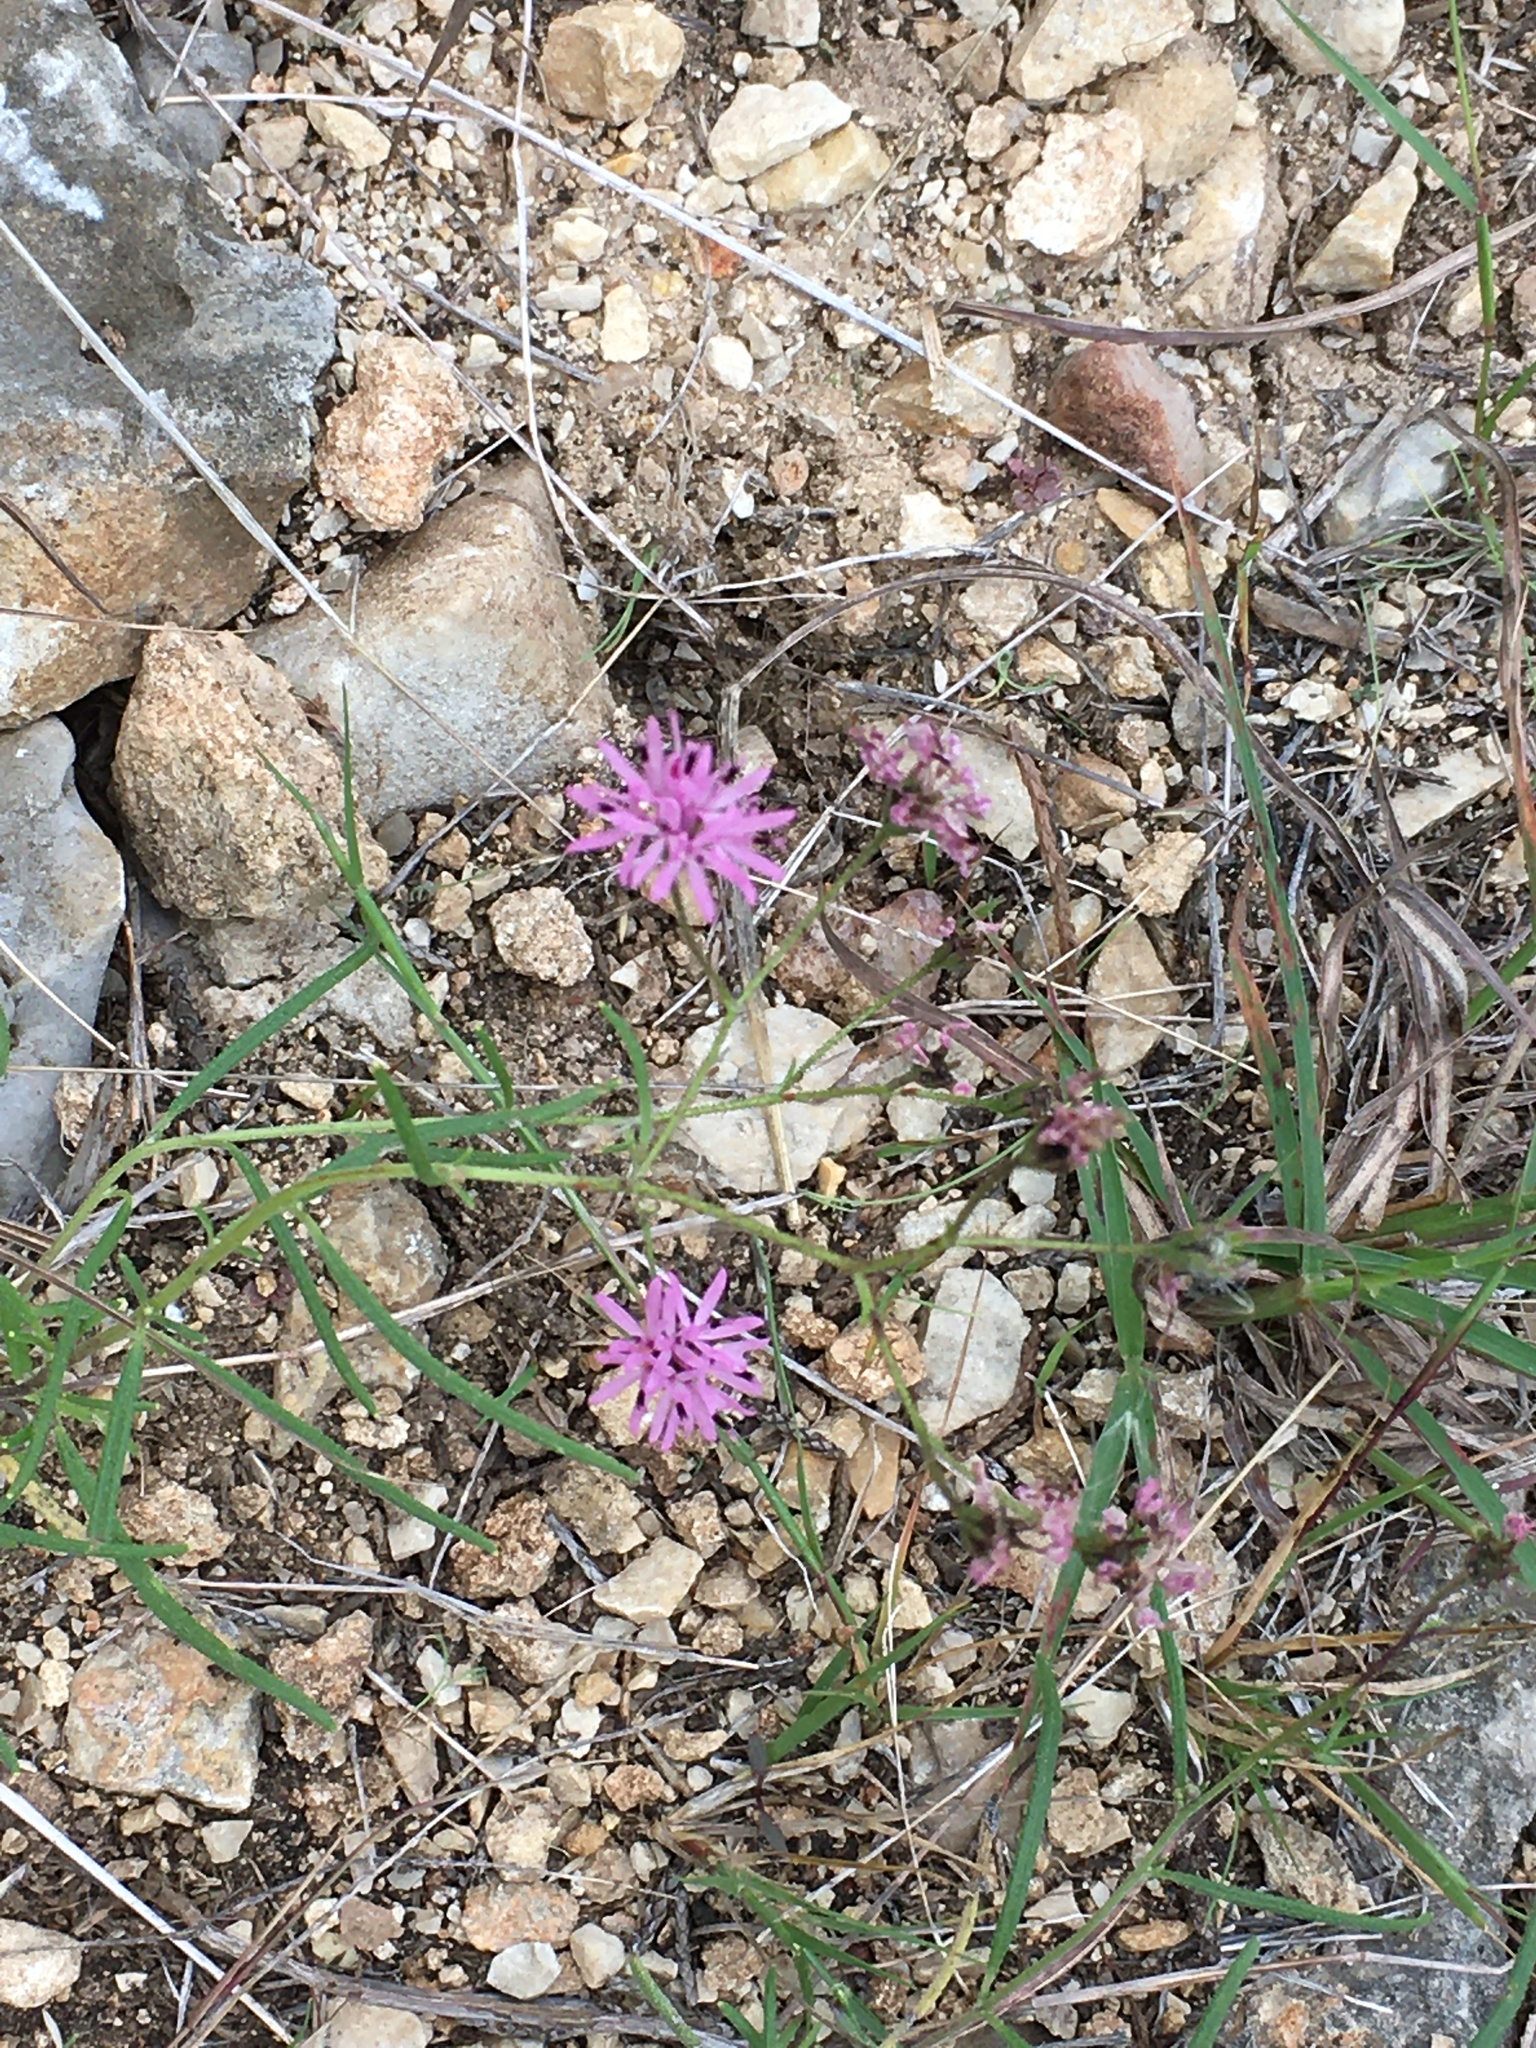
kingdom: Plantae
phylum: Tracheophyta
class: Magnoliopsida
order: Asterales
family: Asteraceae
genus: Palafoxia
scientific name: Palafoxia callosa
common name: Small palafox
